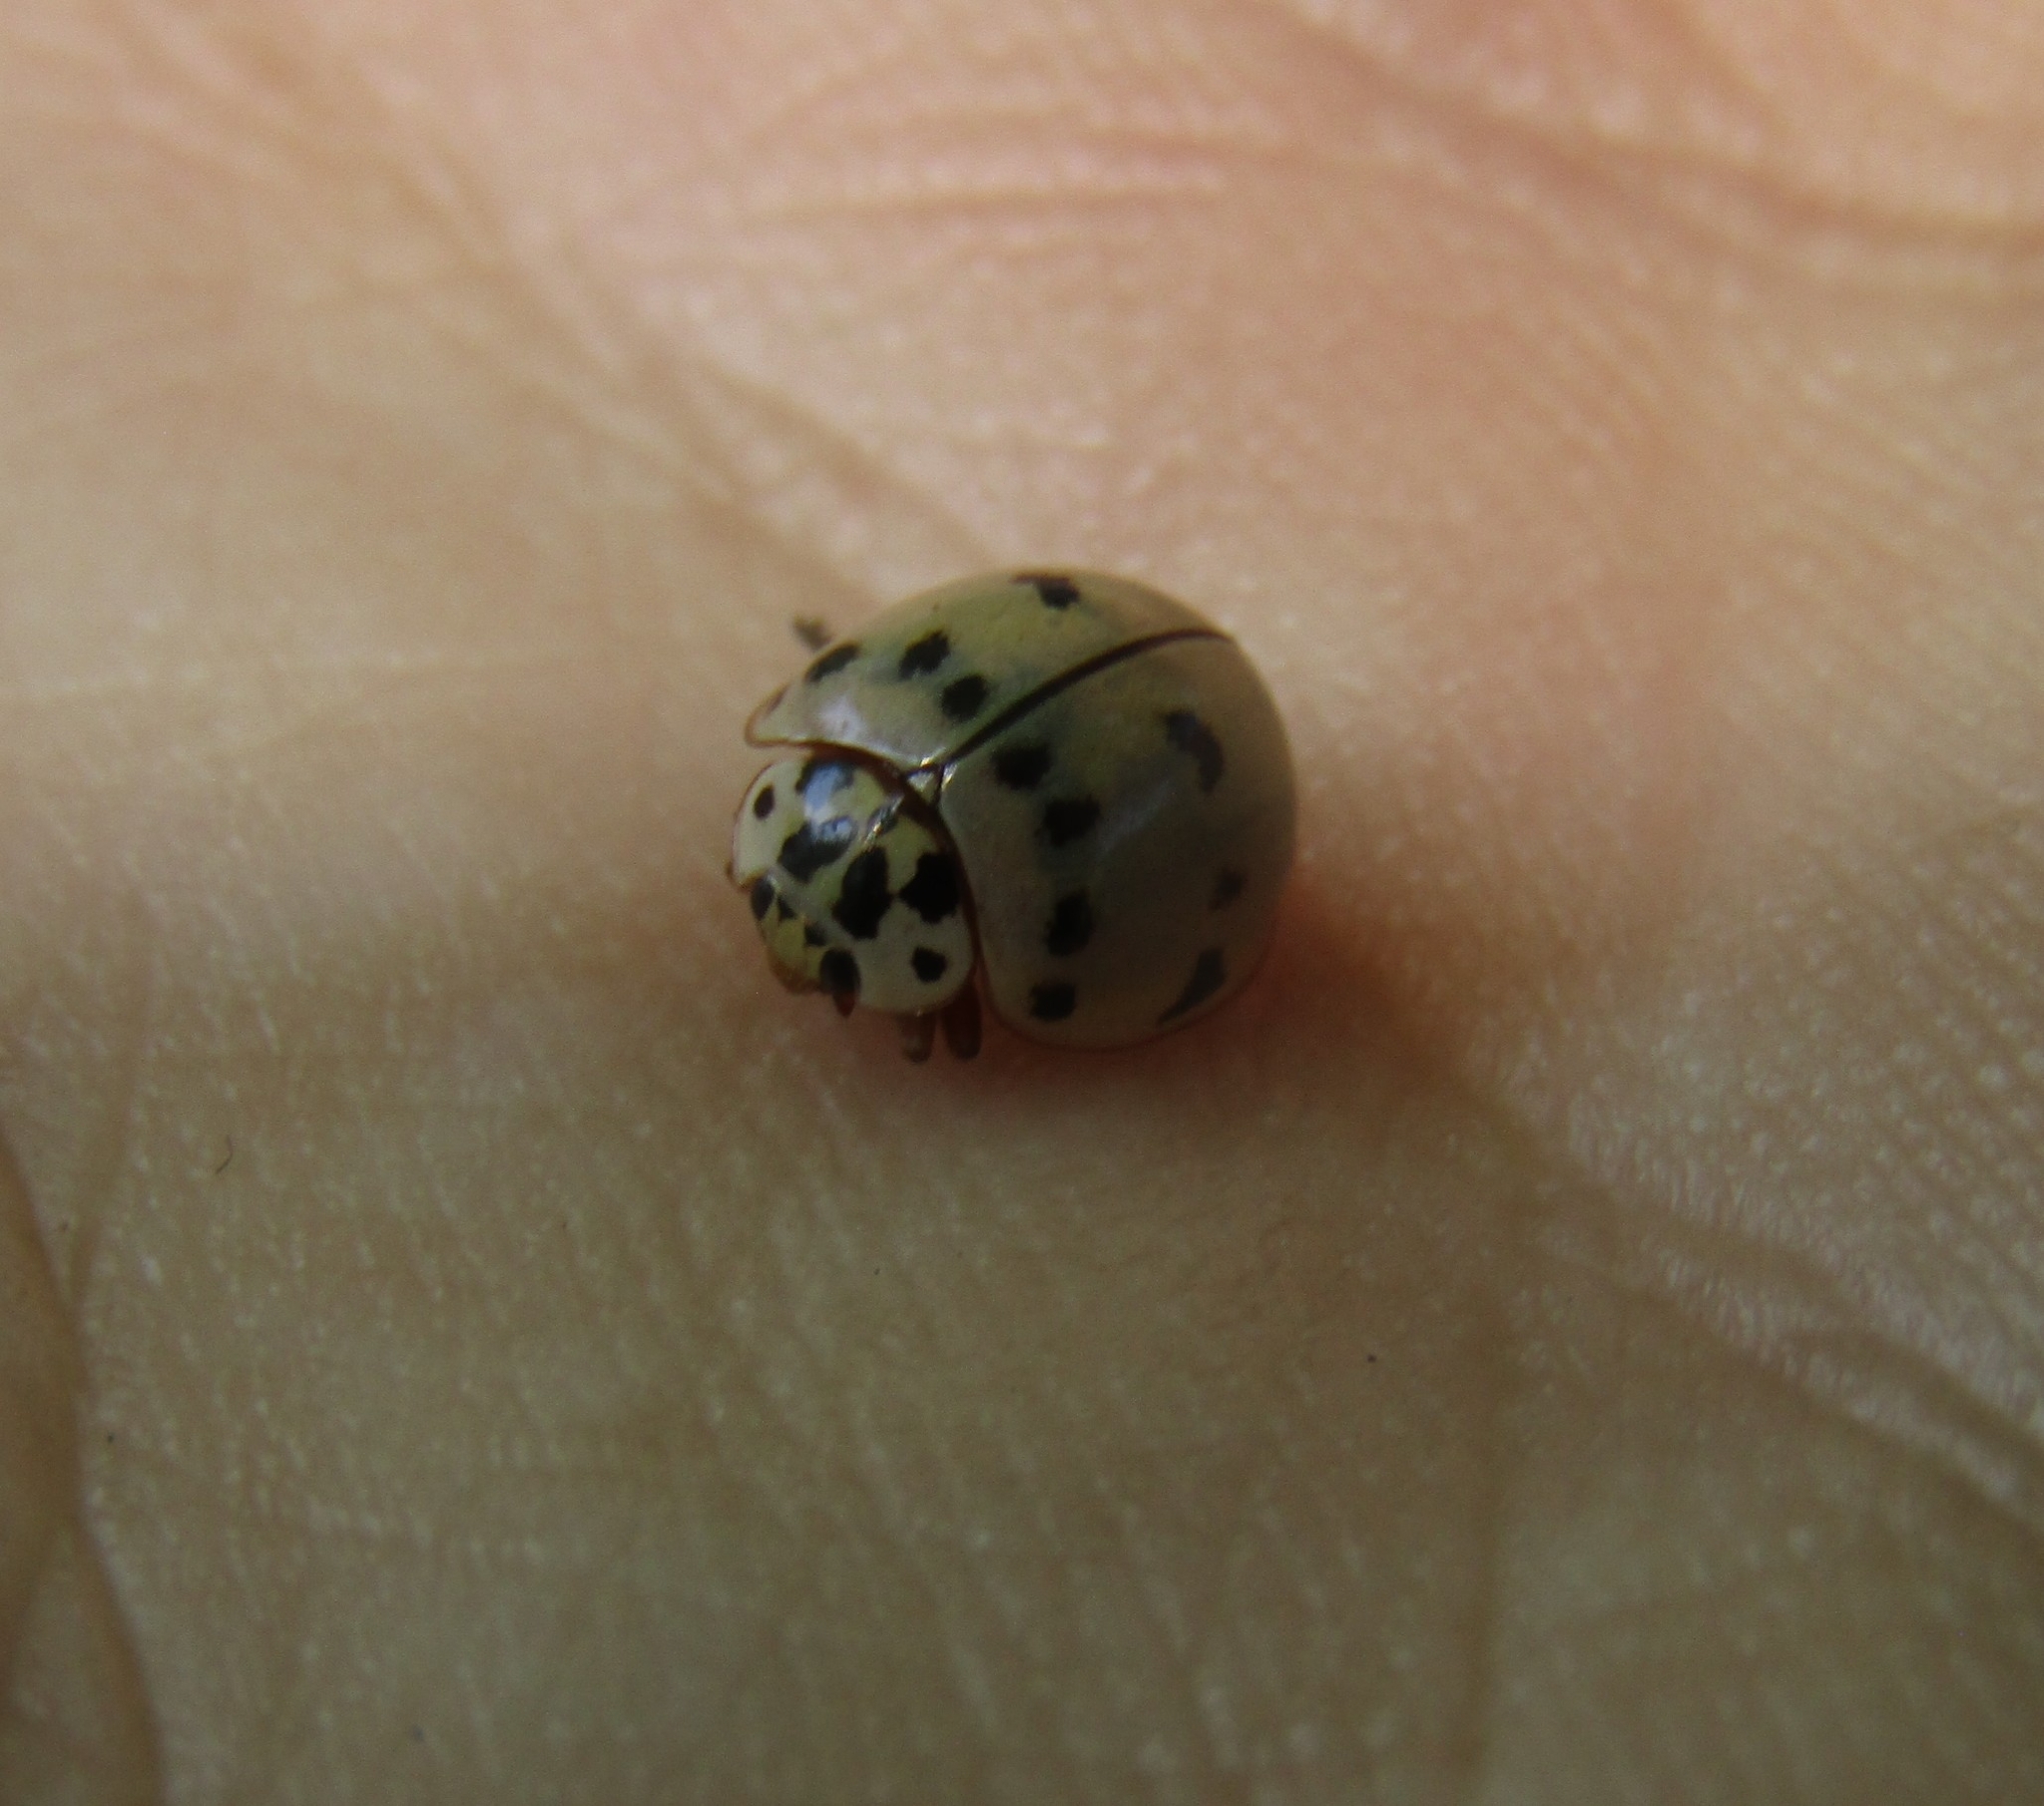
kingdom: Animalia
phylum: Arthropoda
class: Insecta
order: Coleoptera
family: Coccinellidae
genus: Olla
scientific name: Olla v-nigrum
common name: Ashy gray lady beetle
